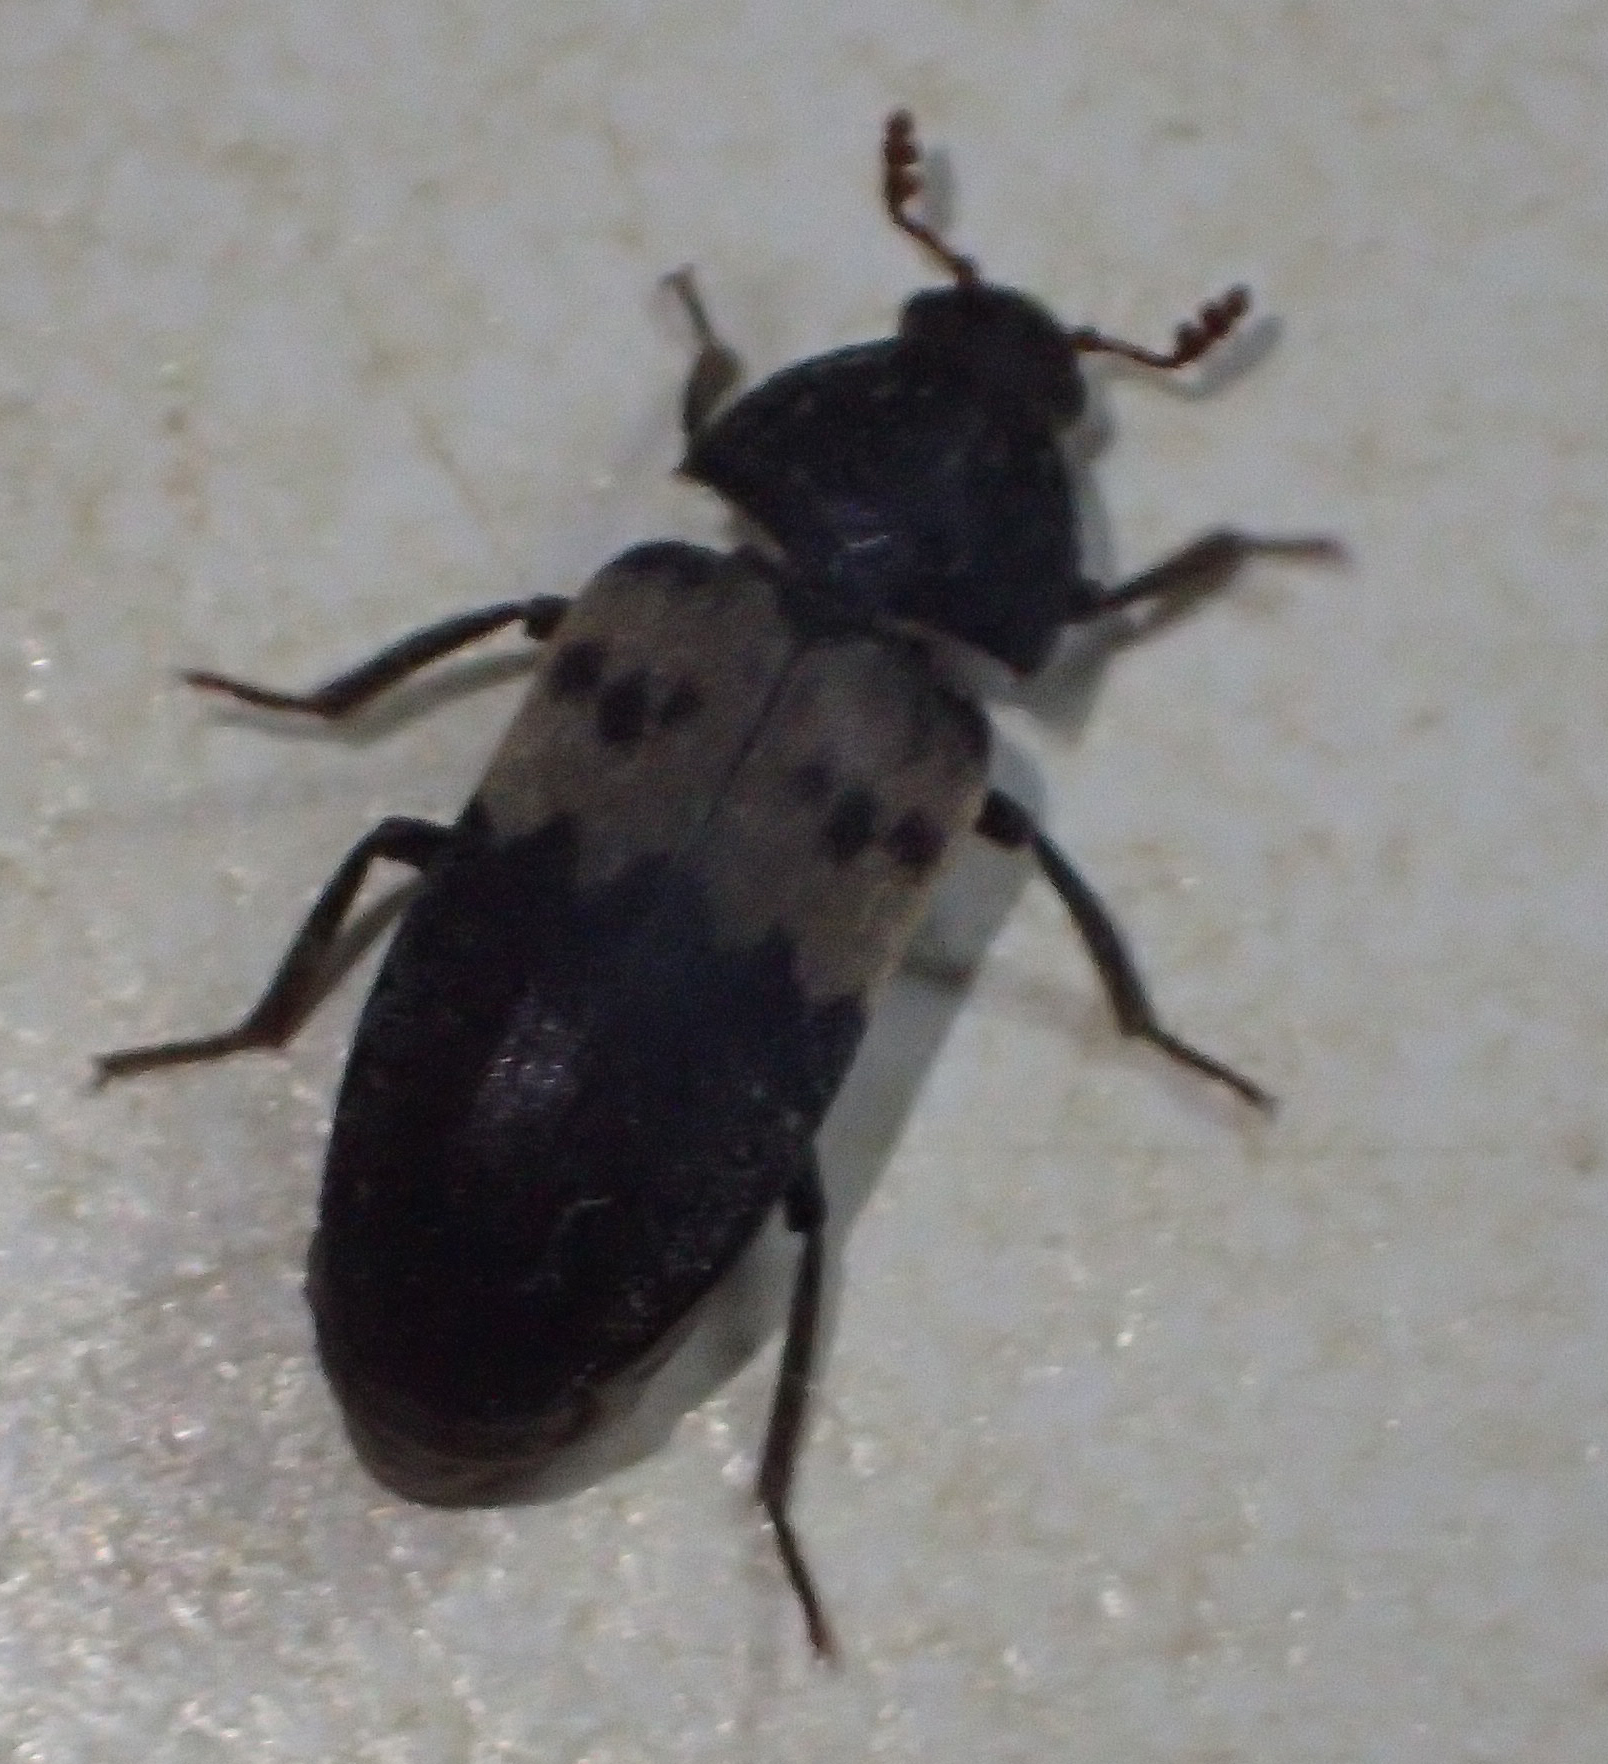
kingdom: Animalia
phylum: Arthropoda
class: Insecta
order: Coleoptera
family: Dermestidae
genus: Dermestes
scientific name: Dermestes lardarius
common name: Larder beetle
